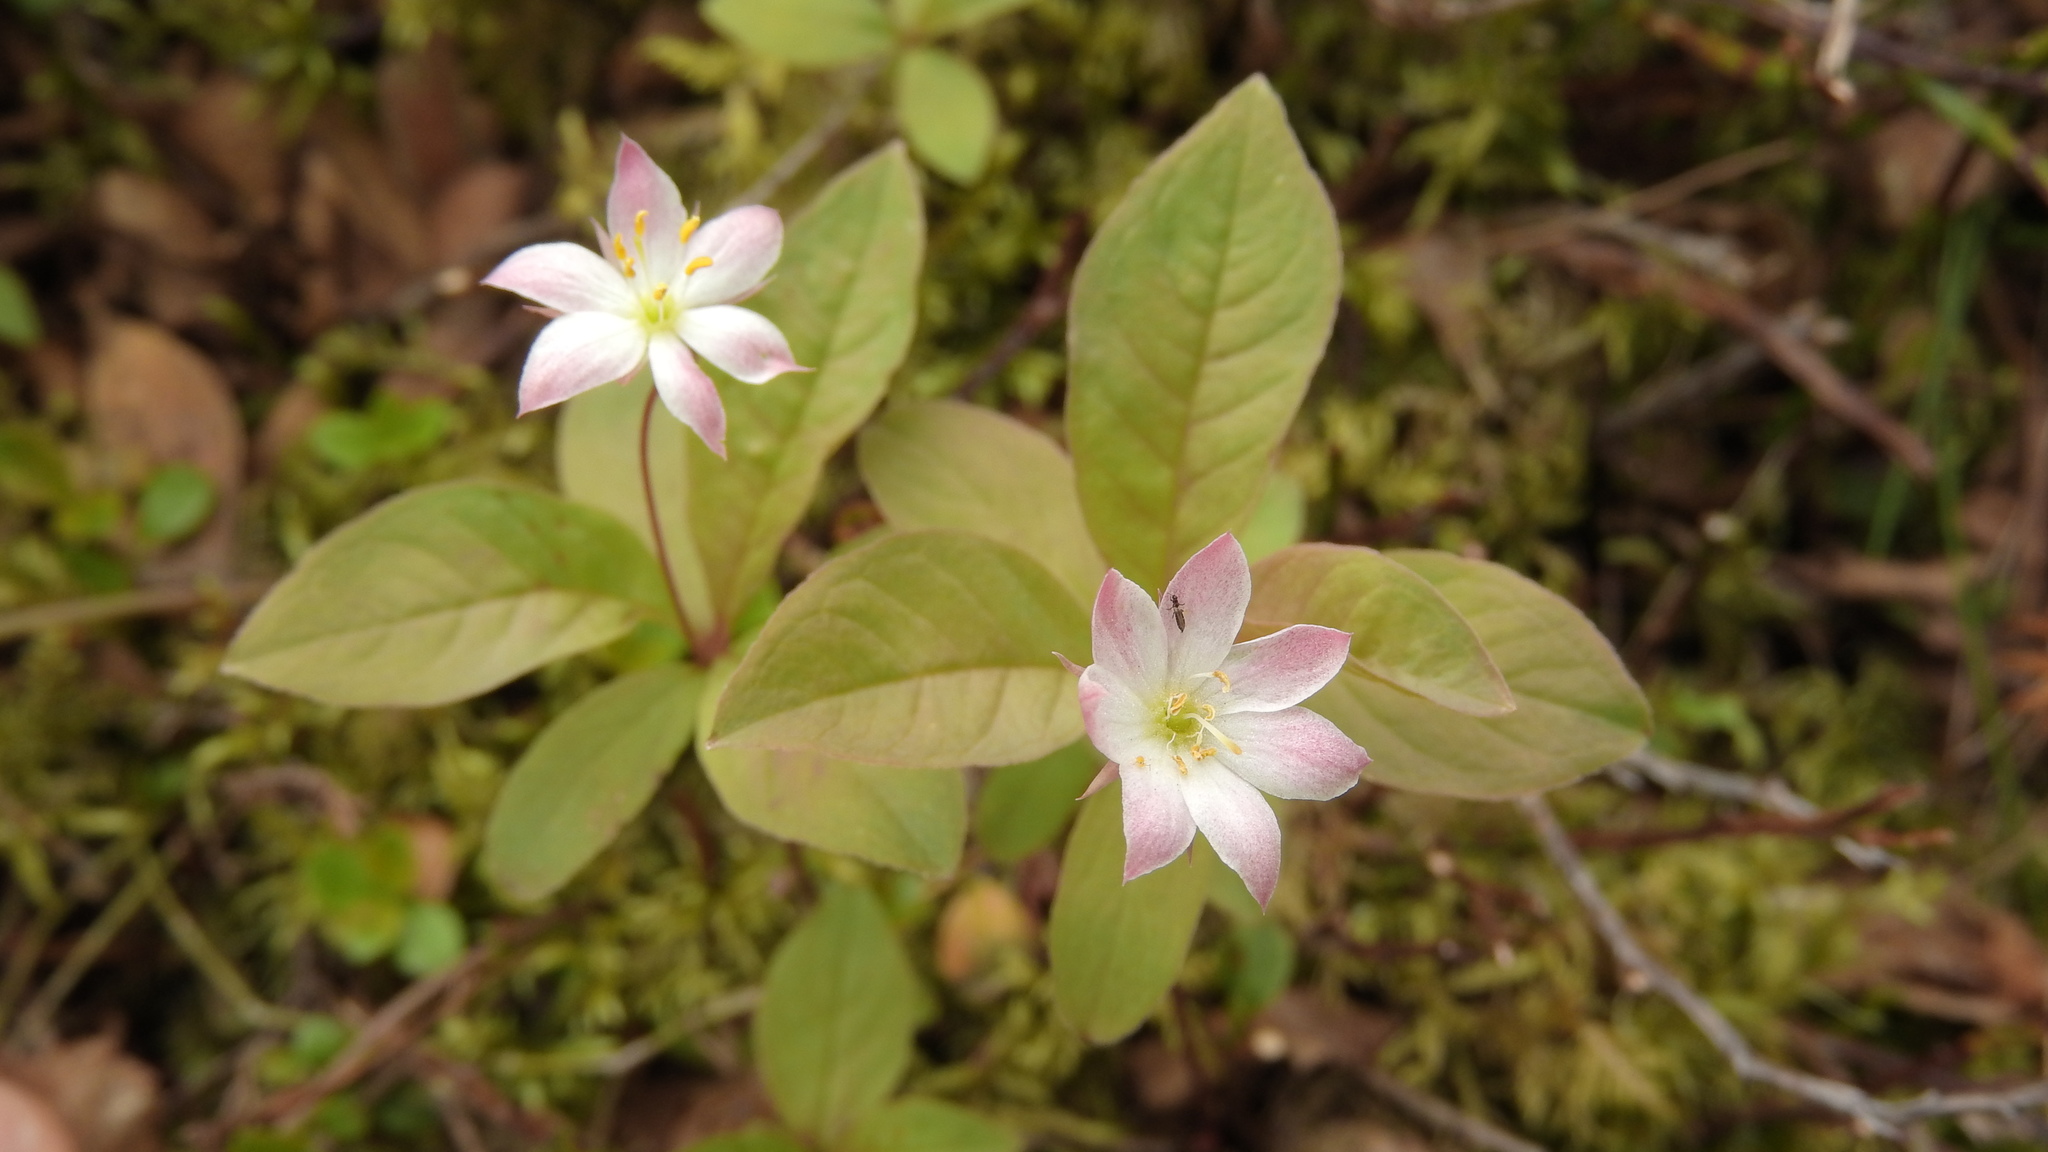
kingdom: Plantae
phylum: Tracheophyta
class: Magnoliopsida
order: Ericales
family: Primulaceae
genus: Lysimachia
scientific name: Lysimachia europaea
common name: Arctic starflower
